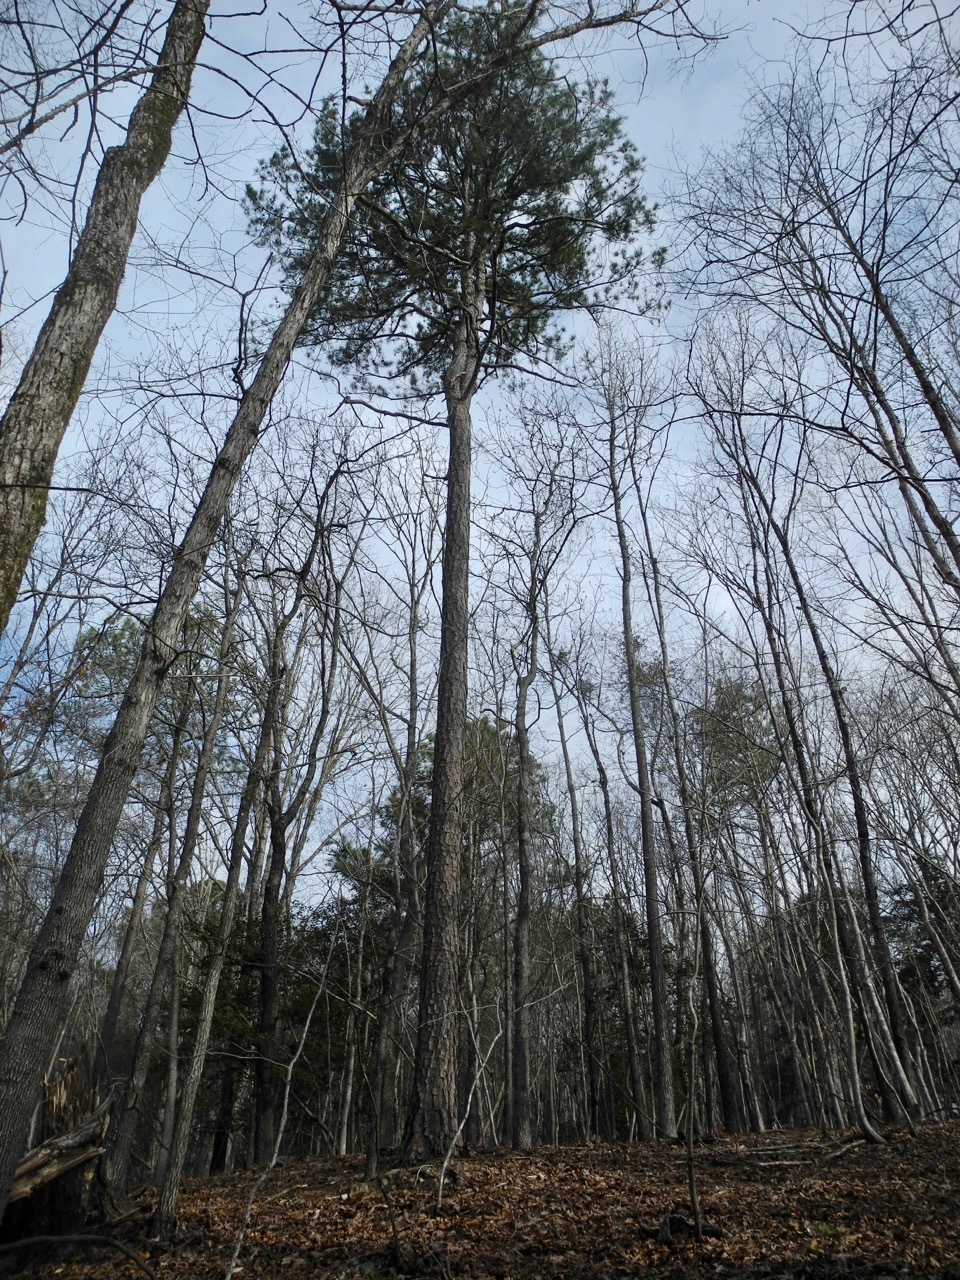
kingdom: Plantae
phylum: Tracheophyta
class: Pinopsida
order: Pinales
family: Pinaceae
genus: Pinus
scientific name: Pinus echinata
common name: Shortleaf pine
